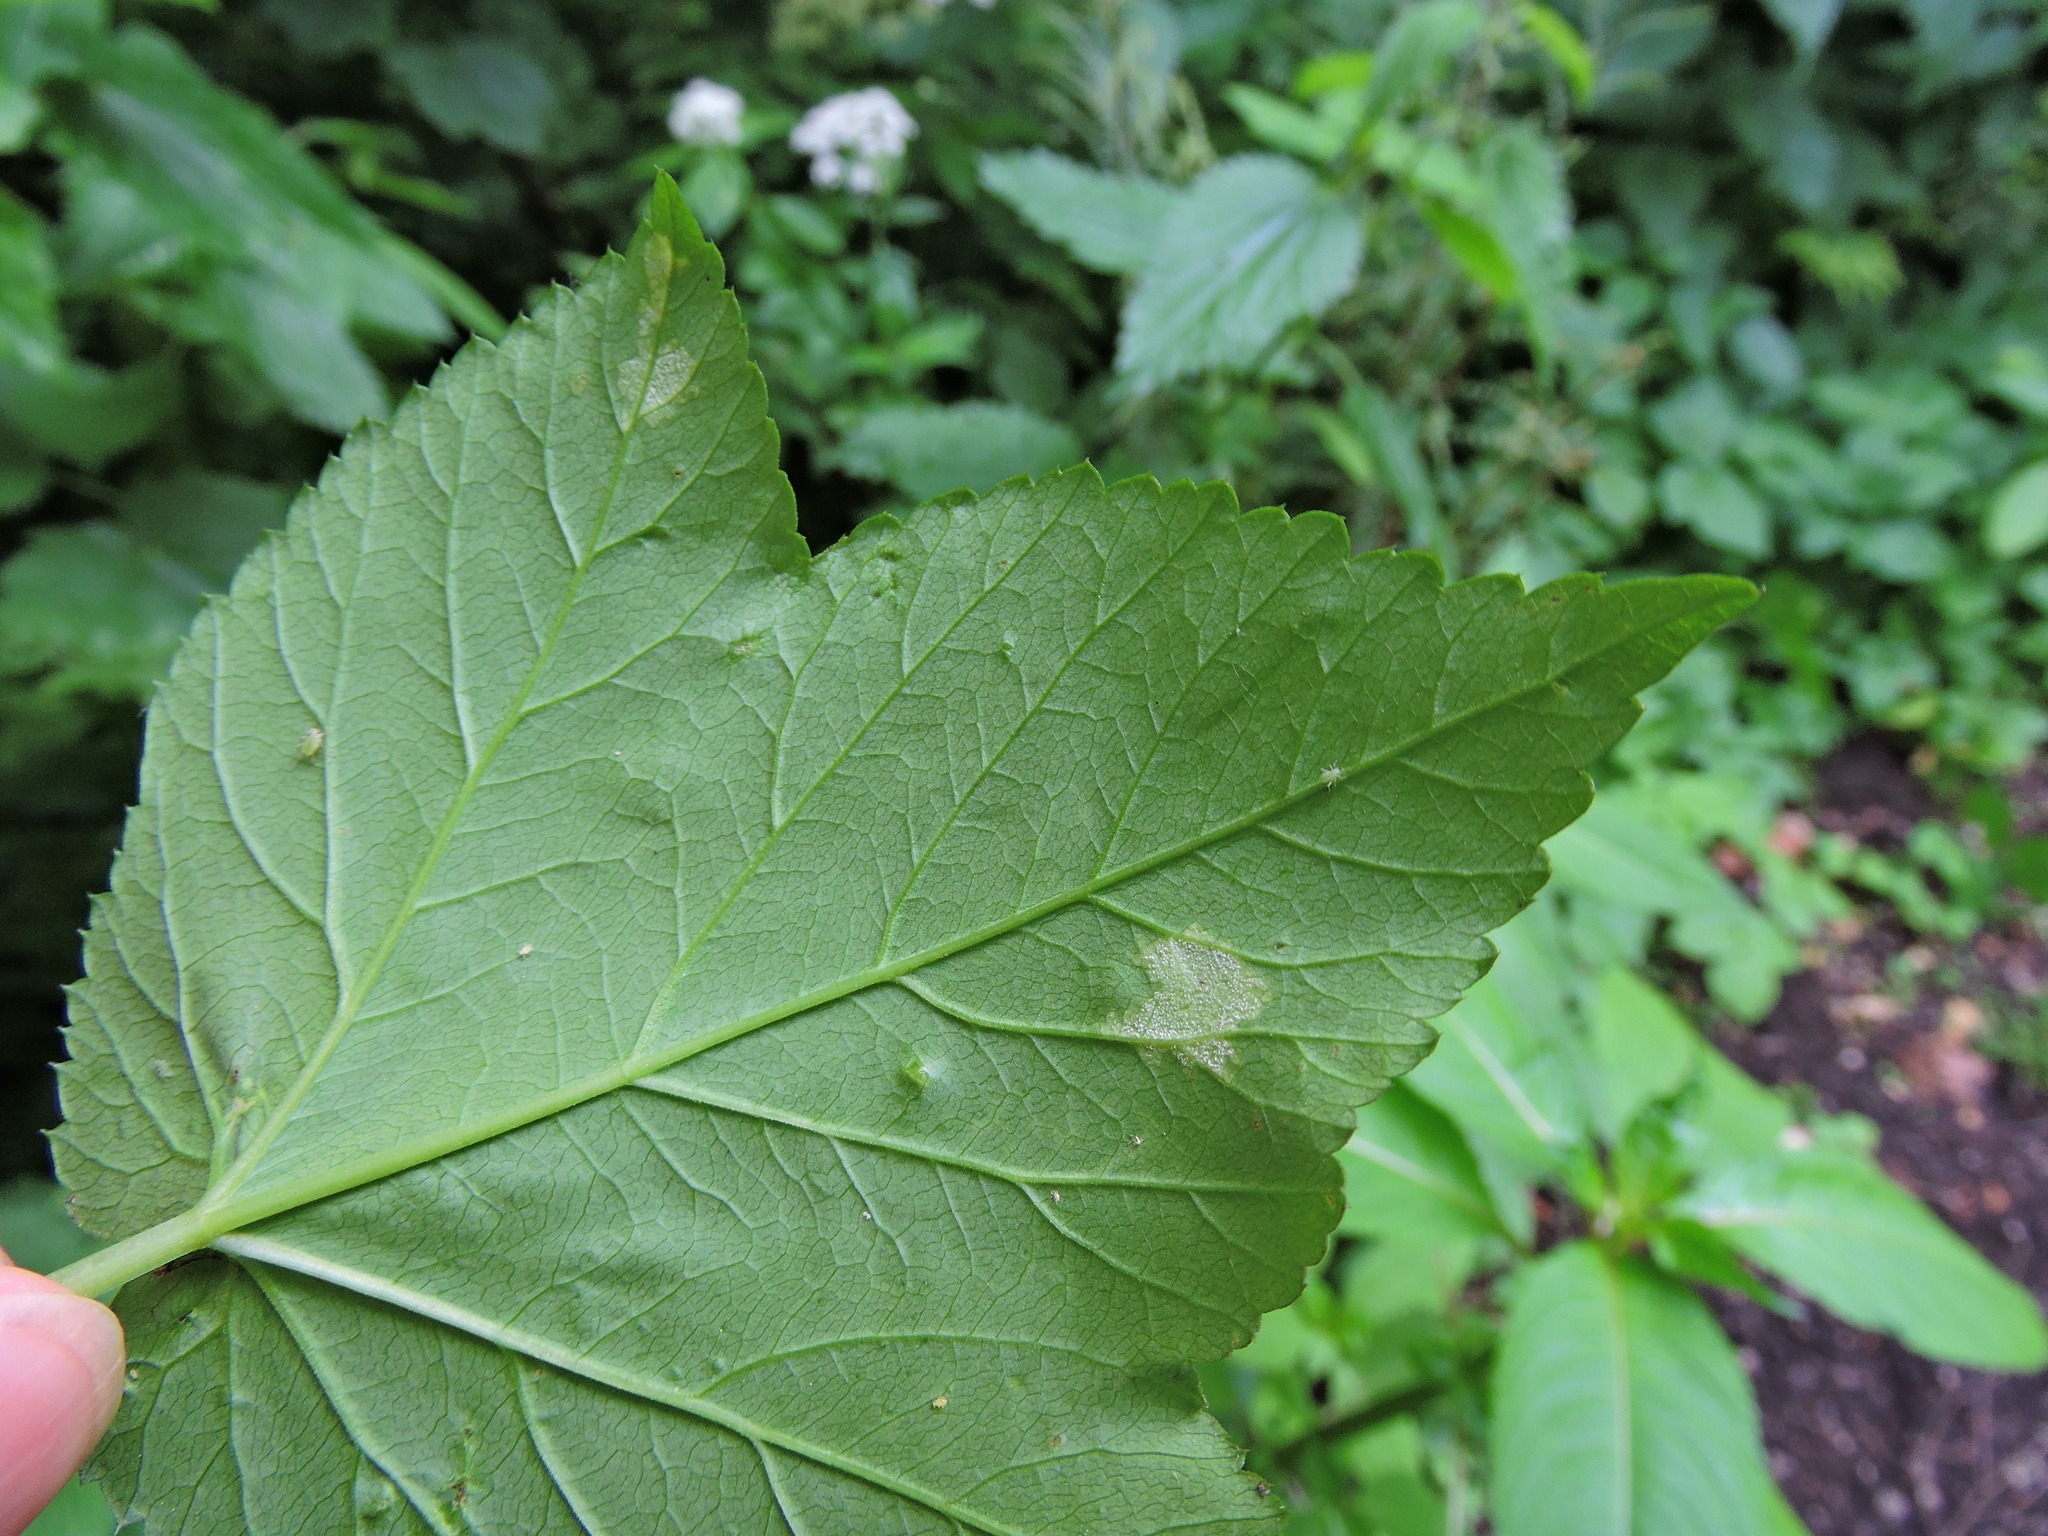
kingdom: Fungi
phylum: Ascomycota
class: Taphrinomycetes
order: Taphrinales
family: Taphrinaceae
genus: Protomyces
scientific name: Protomyces macrosporus
